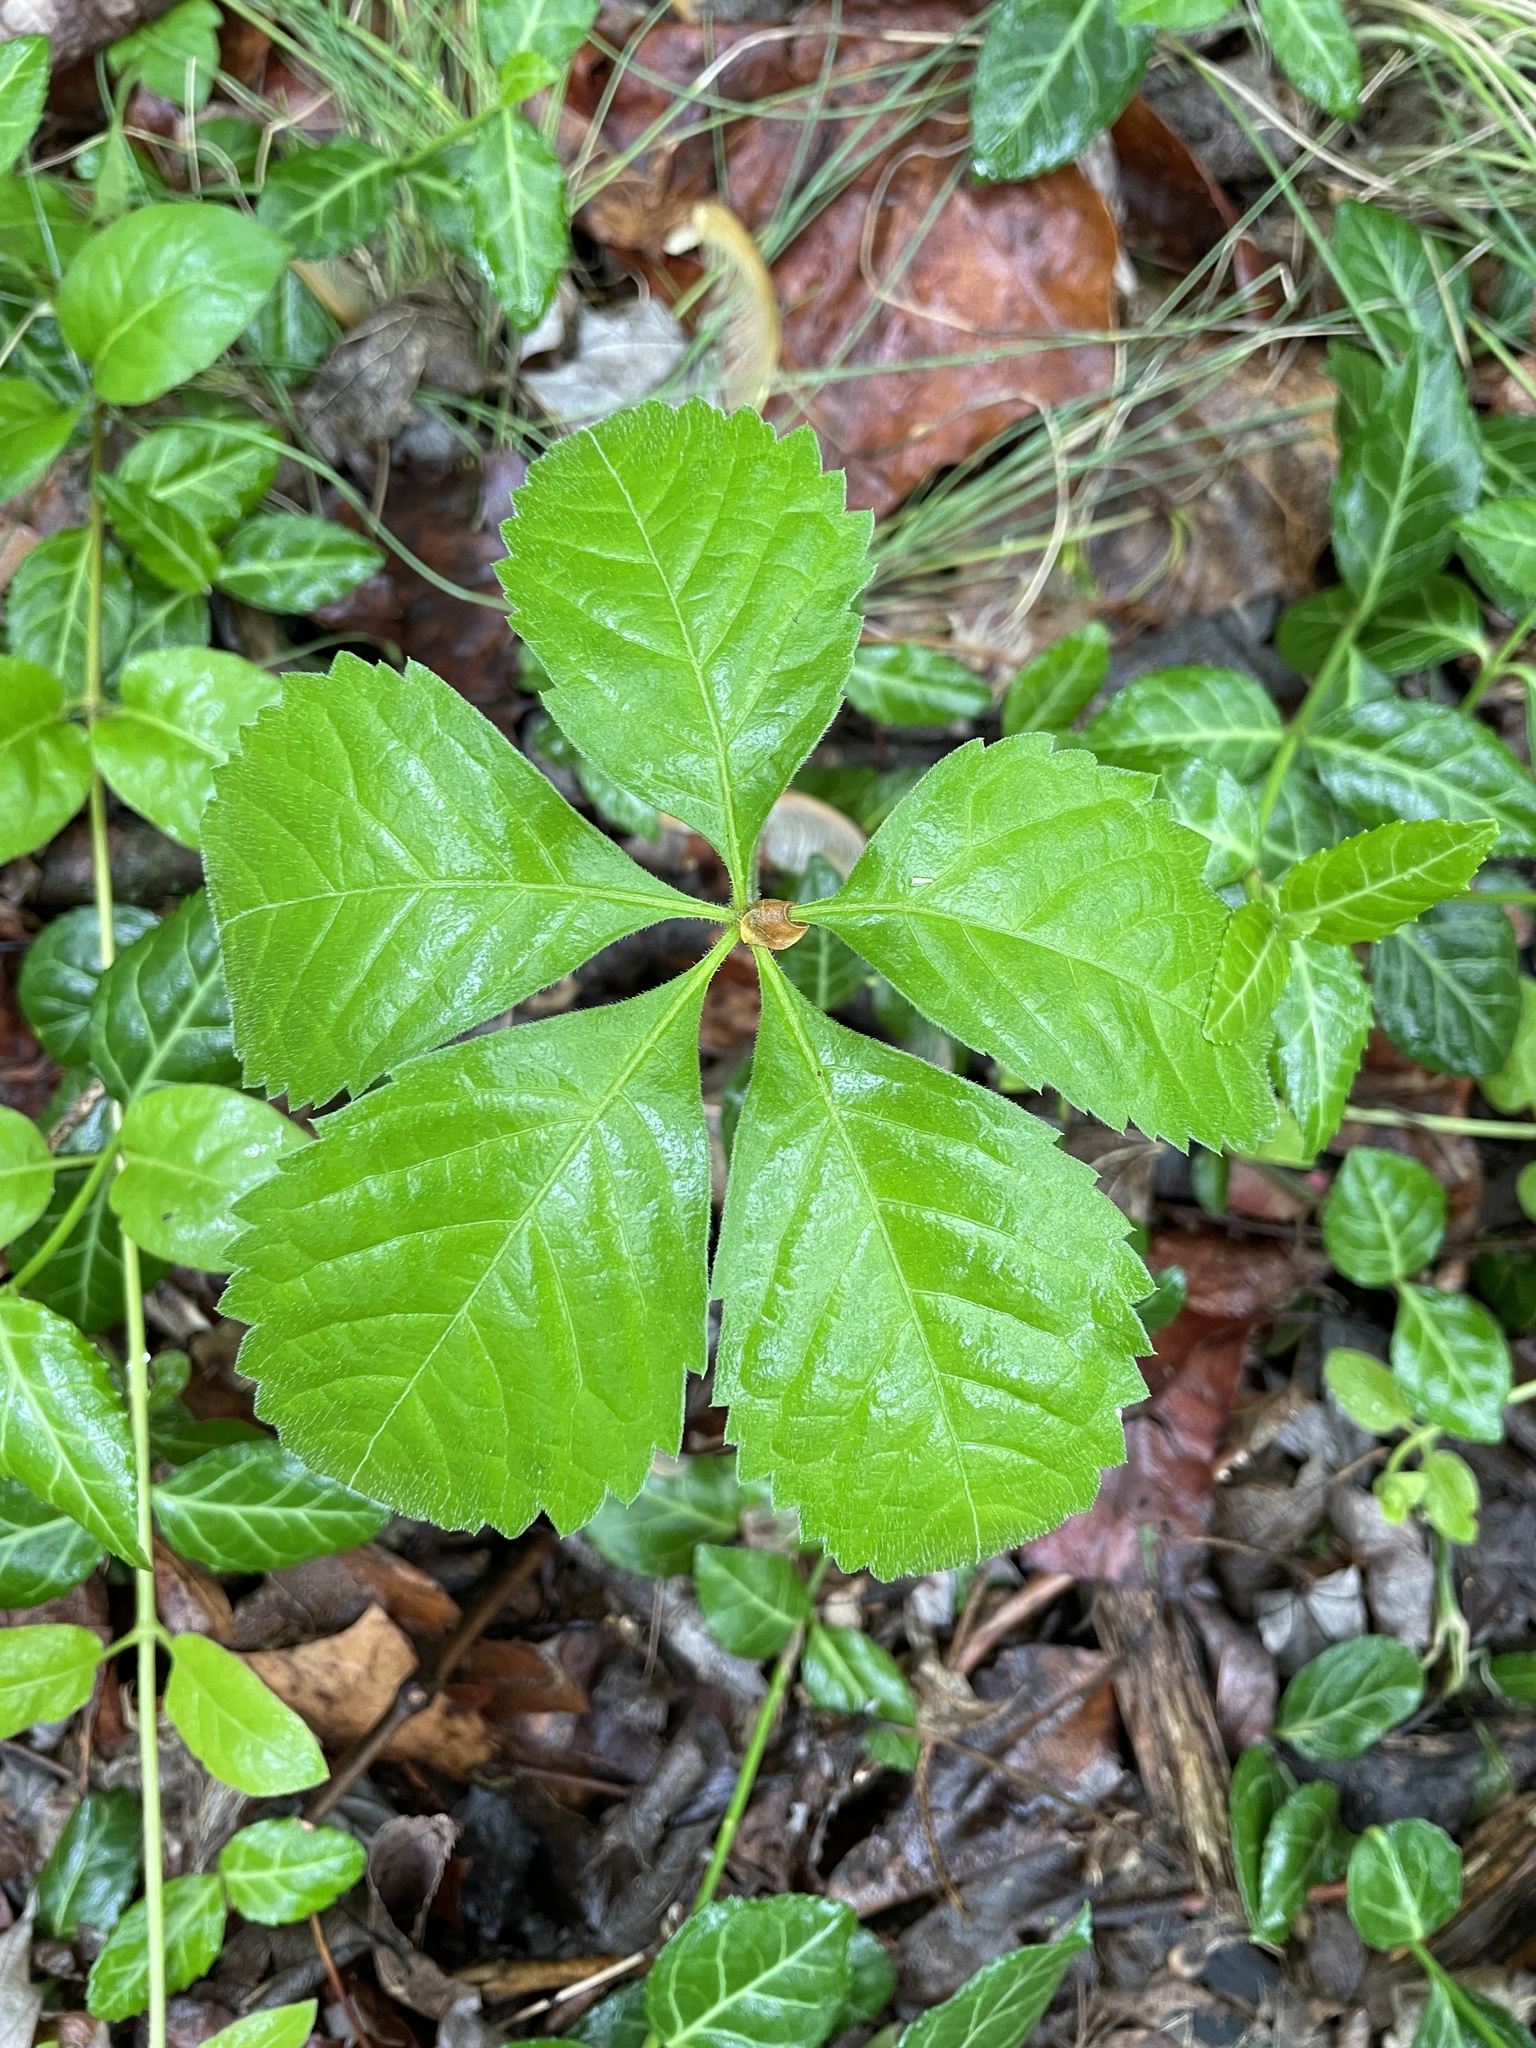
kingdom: Plantae
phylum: Tracheophyta
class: Magnoliopsida
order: Vitales
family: Vitaceae
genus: Parthenocissus
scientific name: Parthenocissus quinquefolia
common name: Virginia-creeper
